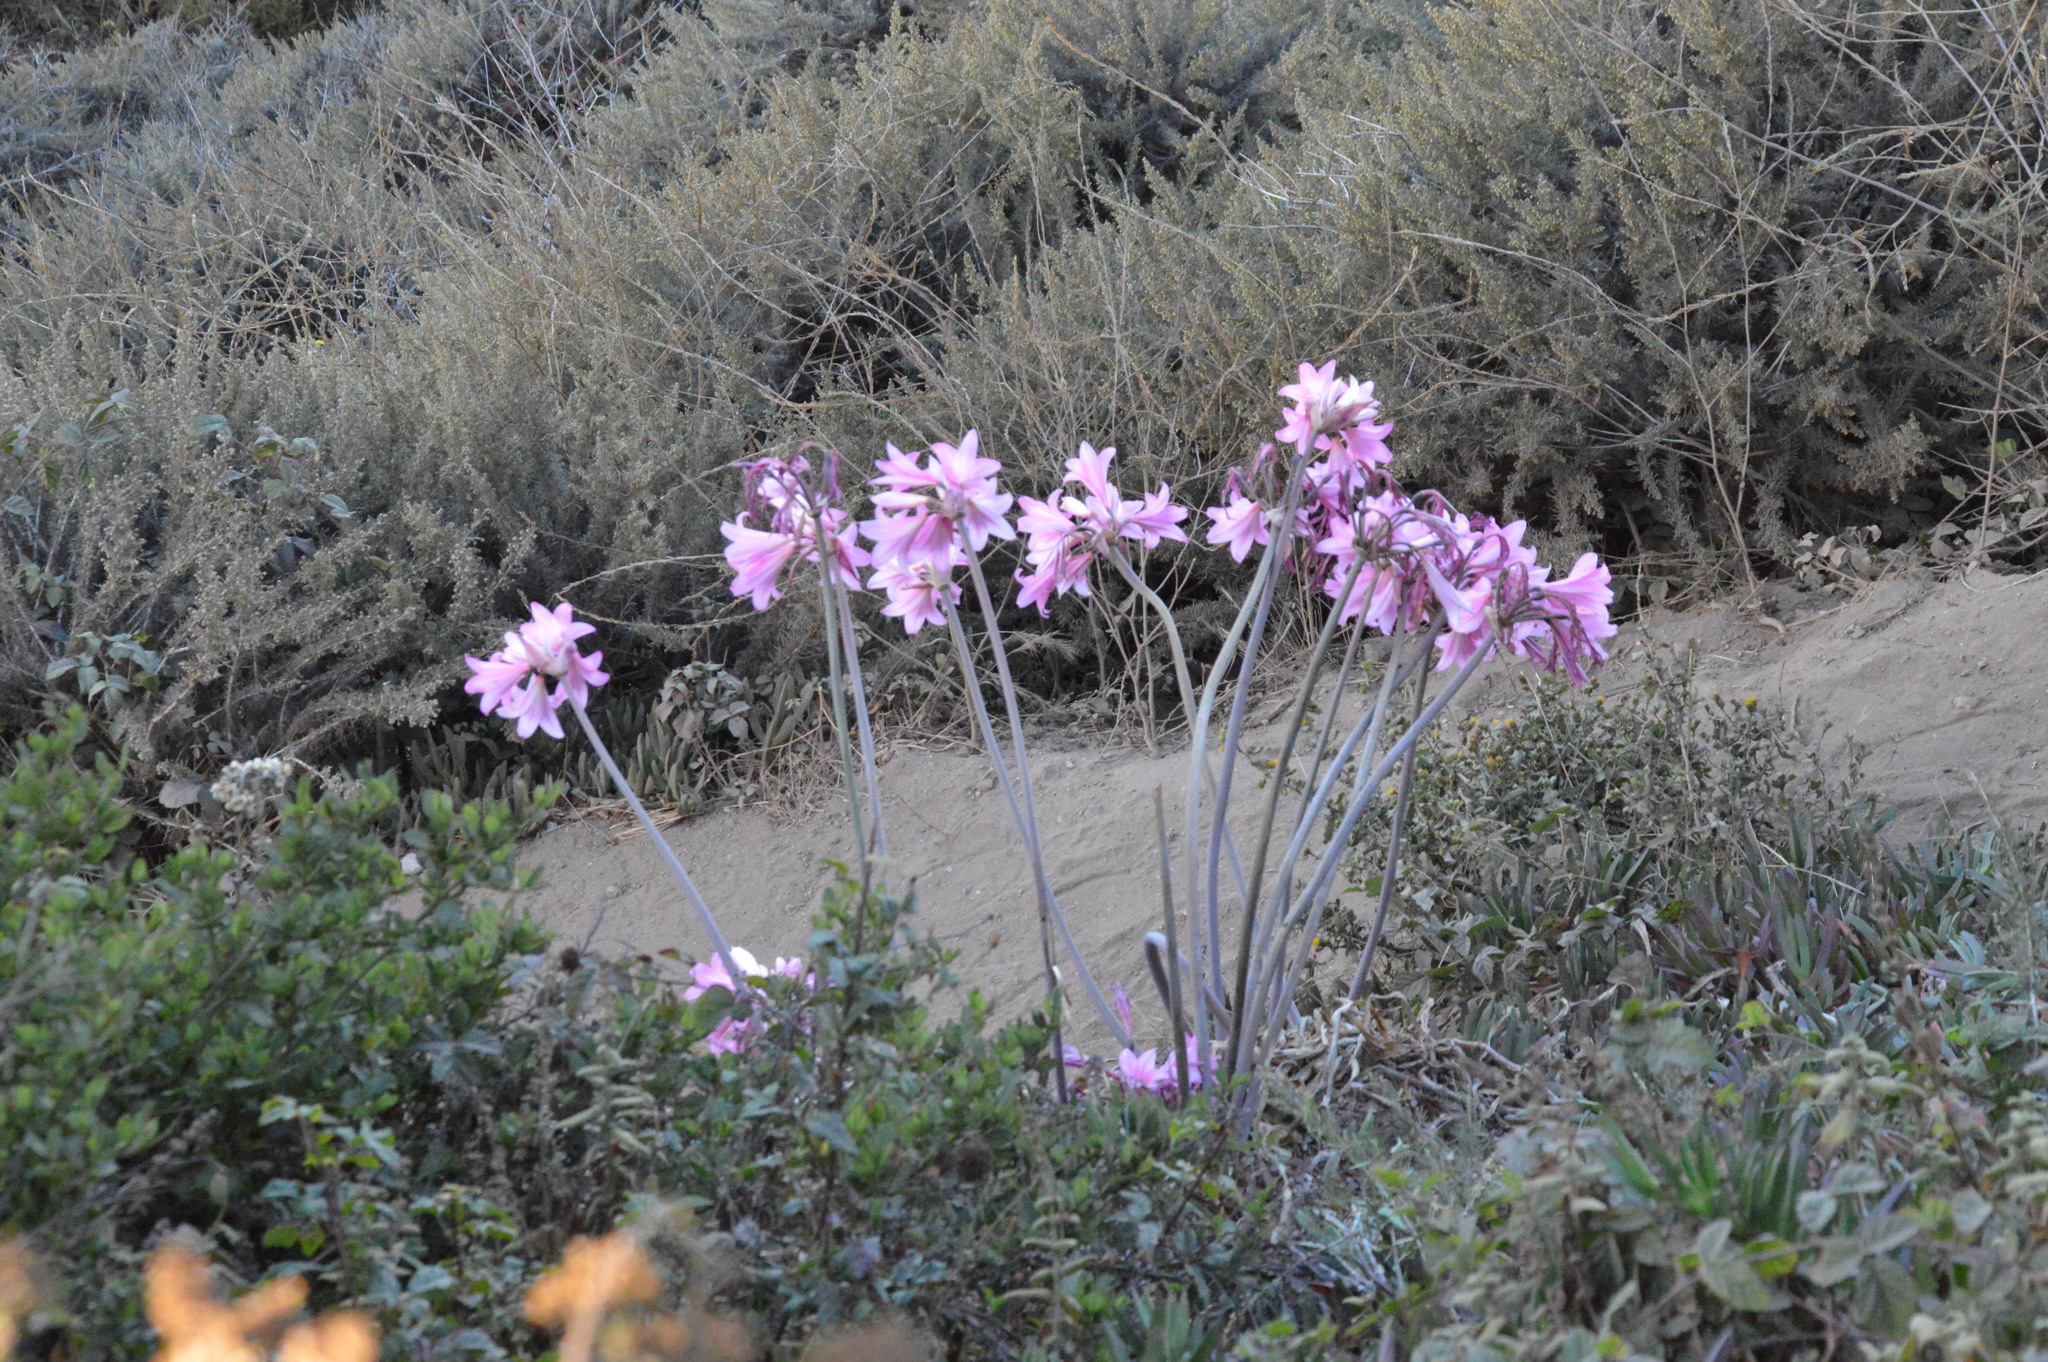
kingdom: Plantae
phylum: Tracheophyta
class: Liliopsida
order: Asparagales
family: Amaryllidaceae
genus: Amaryllis
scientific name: Amaryllis belladonna
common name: Jersey lily
